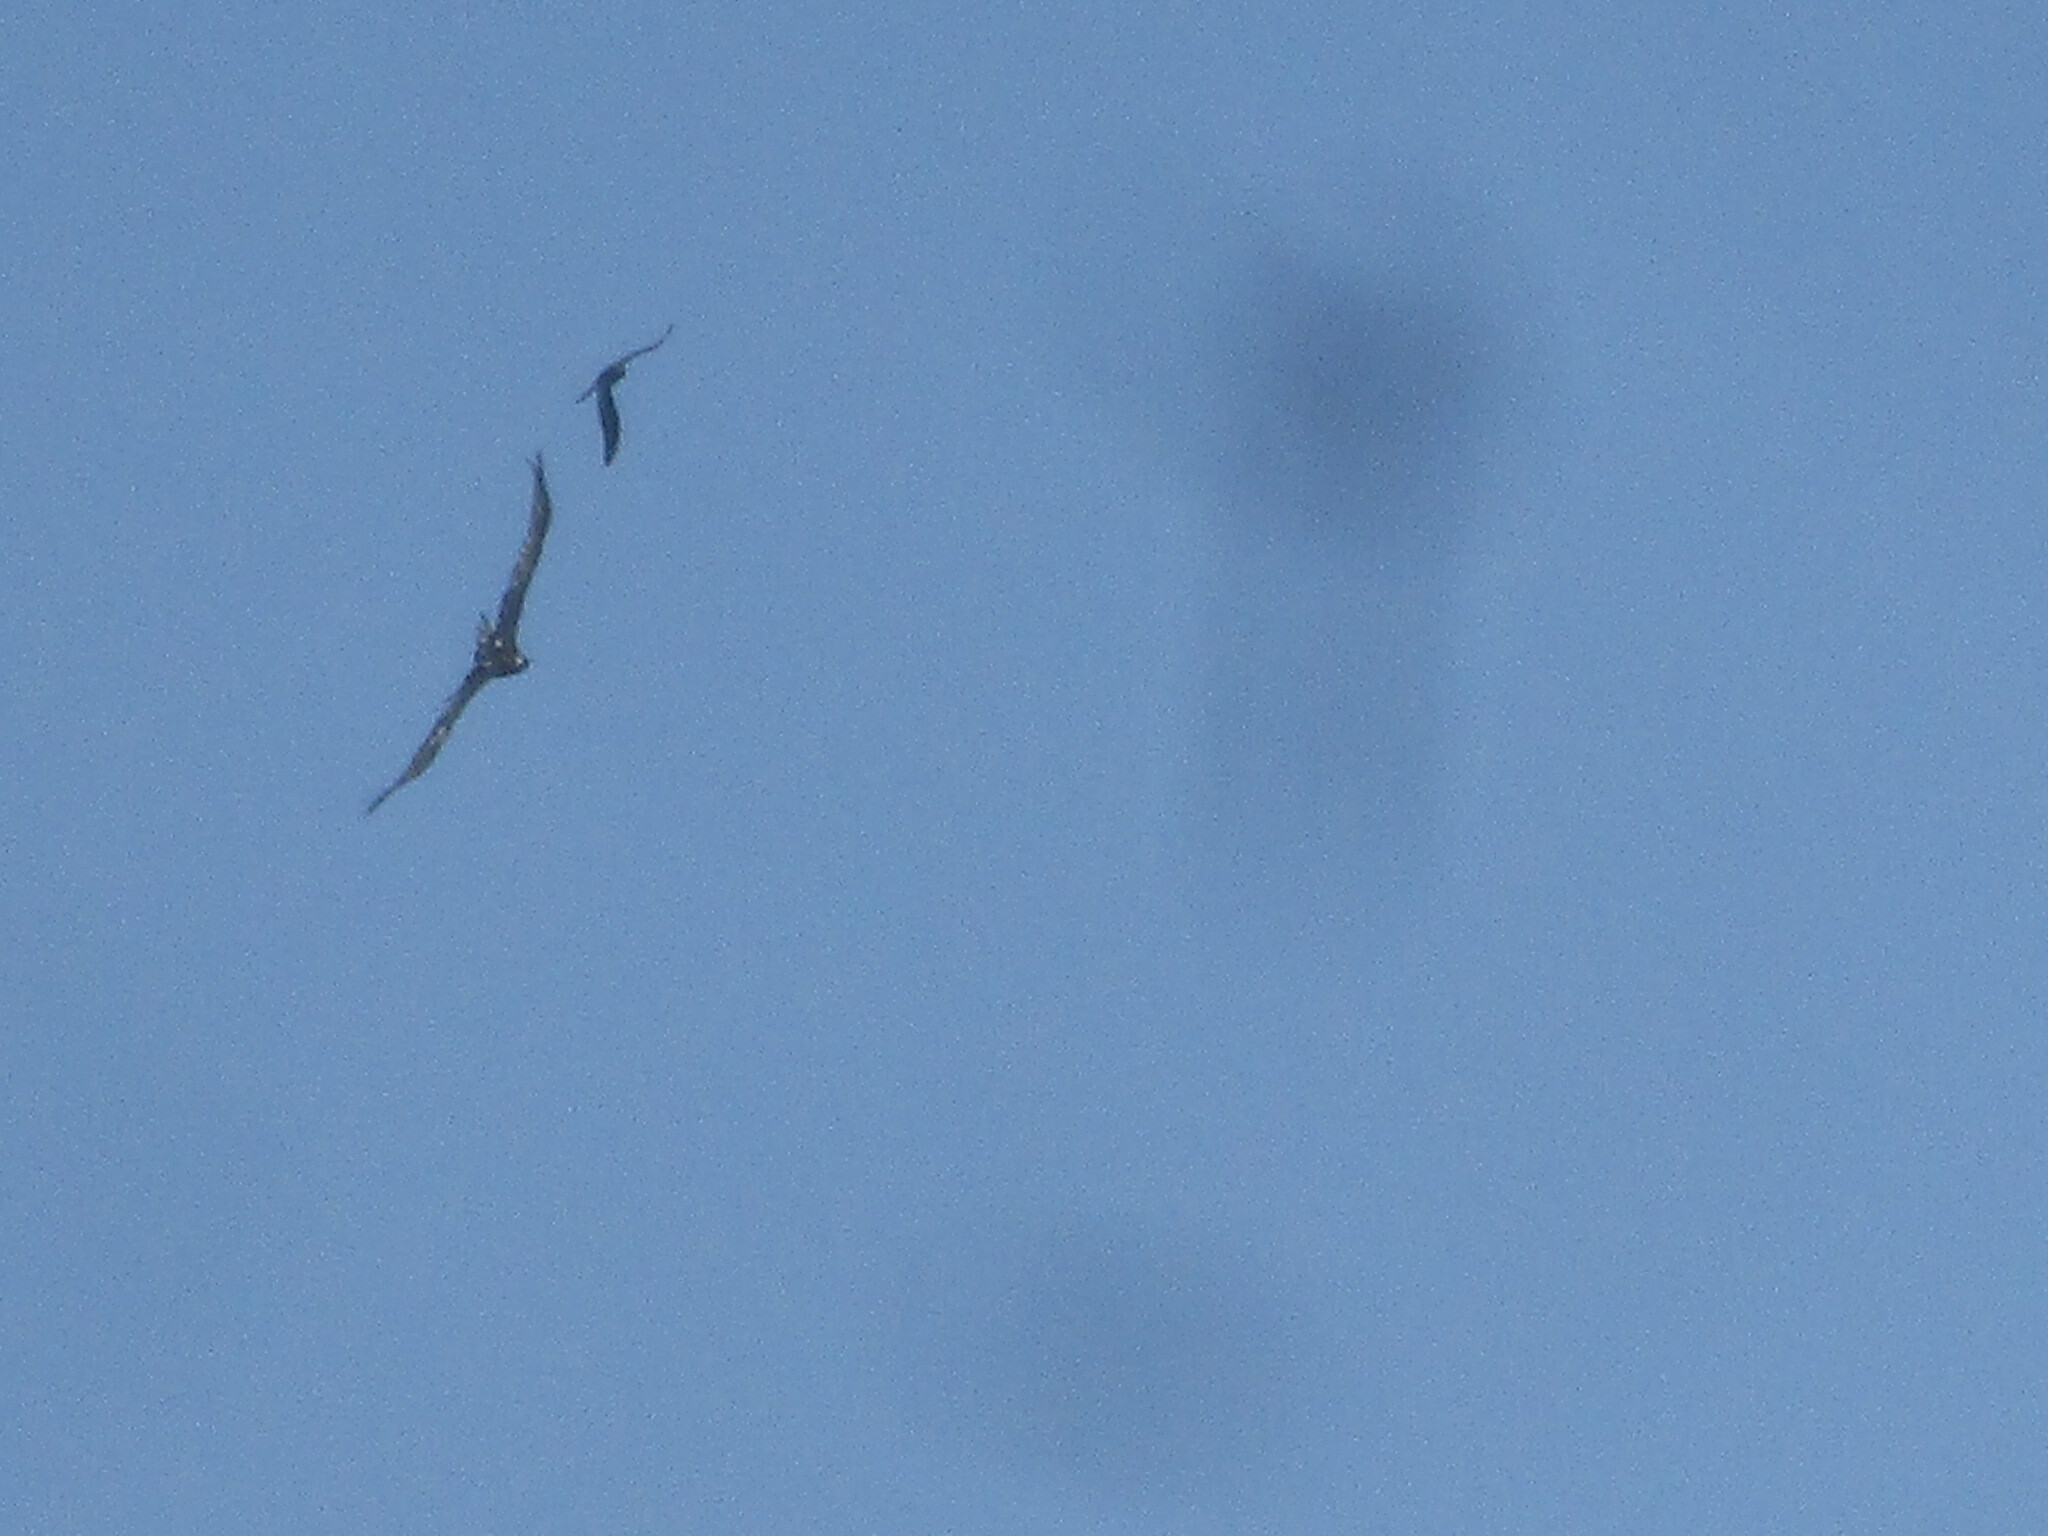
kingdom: Animalia
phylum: Chordata
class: Aves
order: Accipitriformes
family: Accipitridae
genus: Aquila
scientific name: Aquila audax
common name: Wedge-tailed eagle
